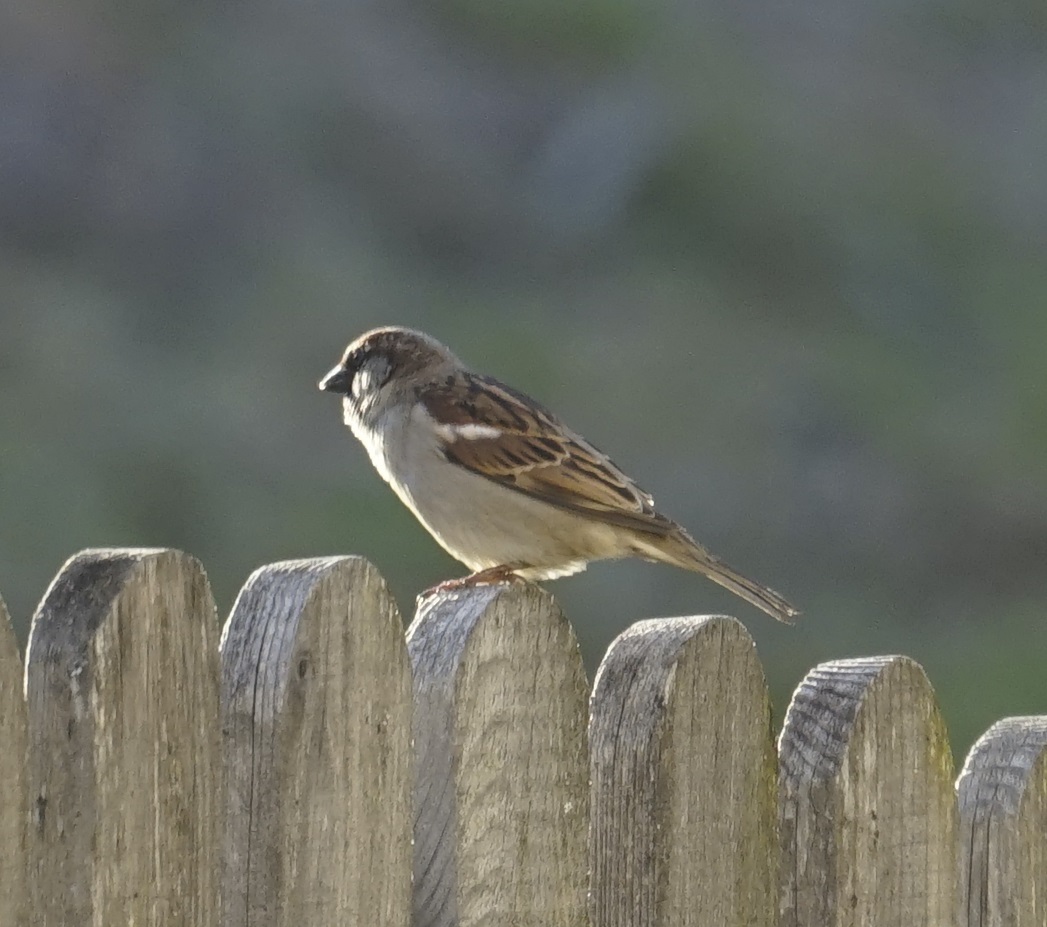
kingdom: Animalia
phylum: Chordata
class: Aves
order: Passeriformes
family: Passeridae
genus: Passer
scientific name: Passer domesticus
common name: House sparrow
